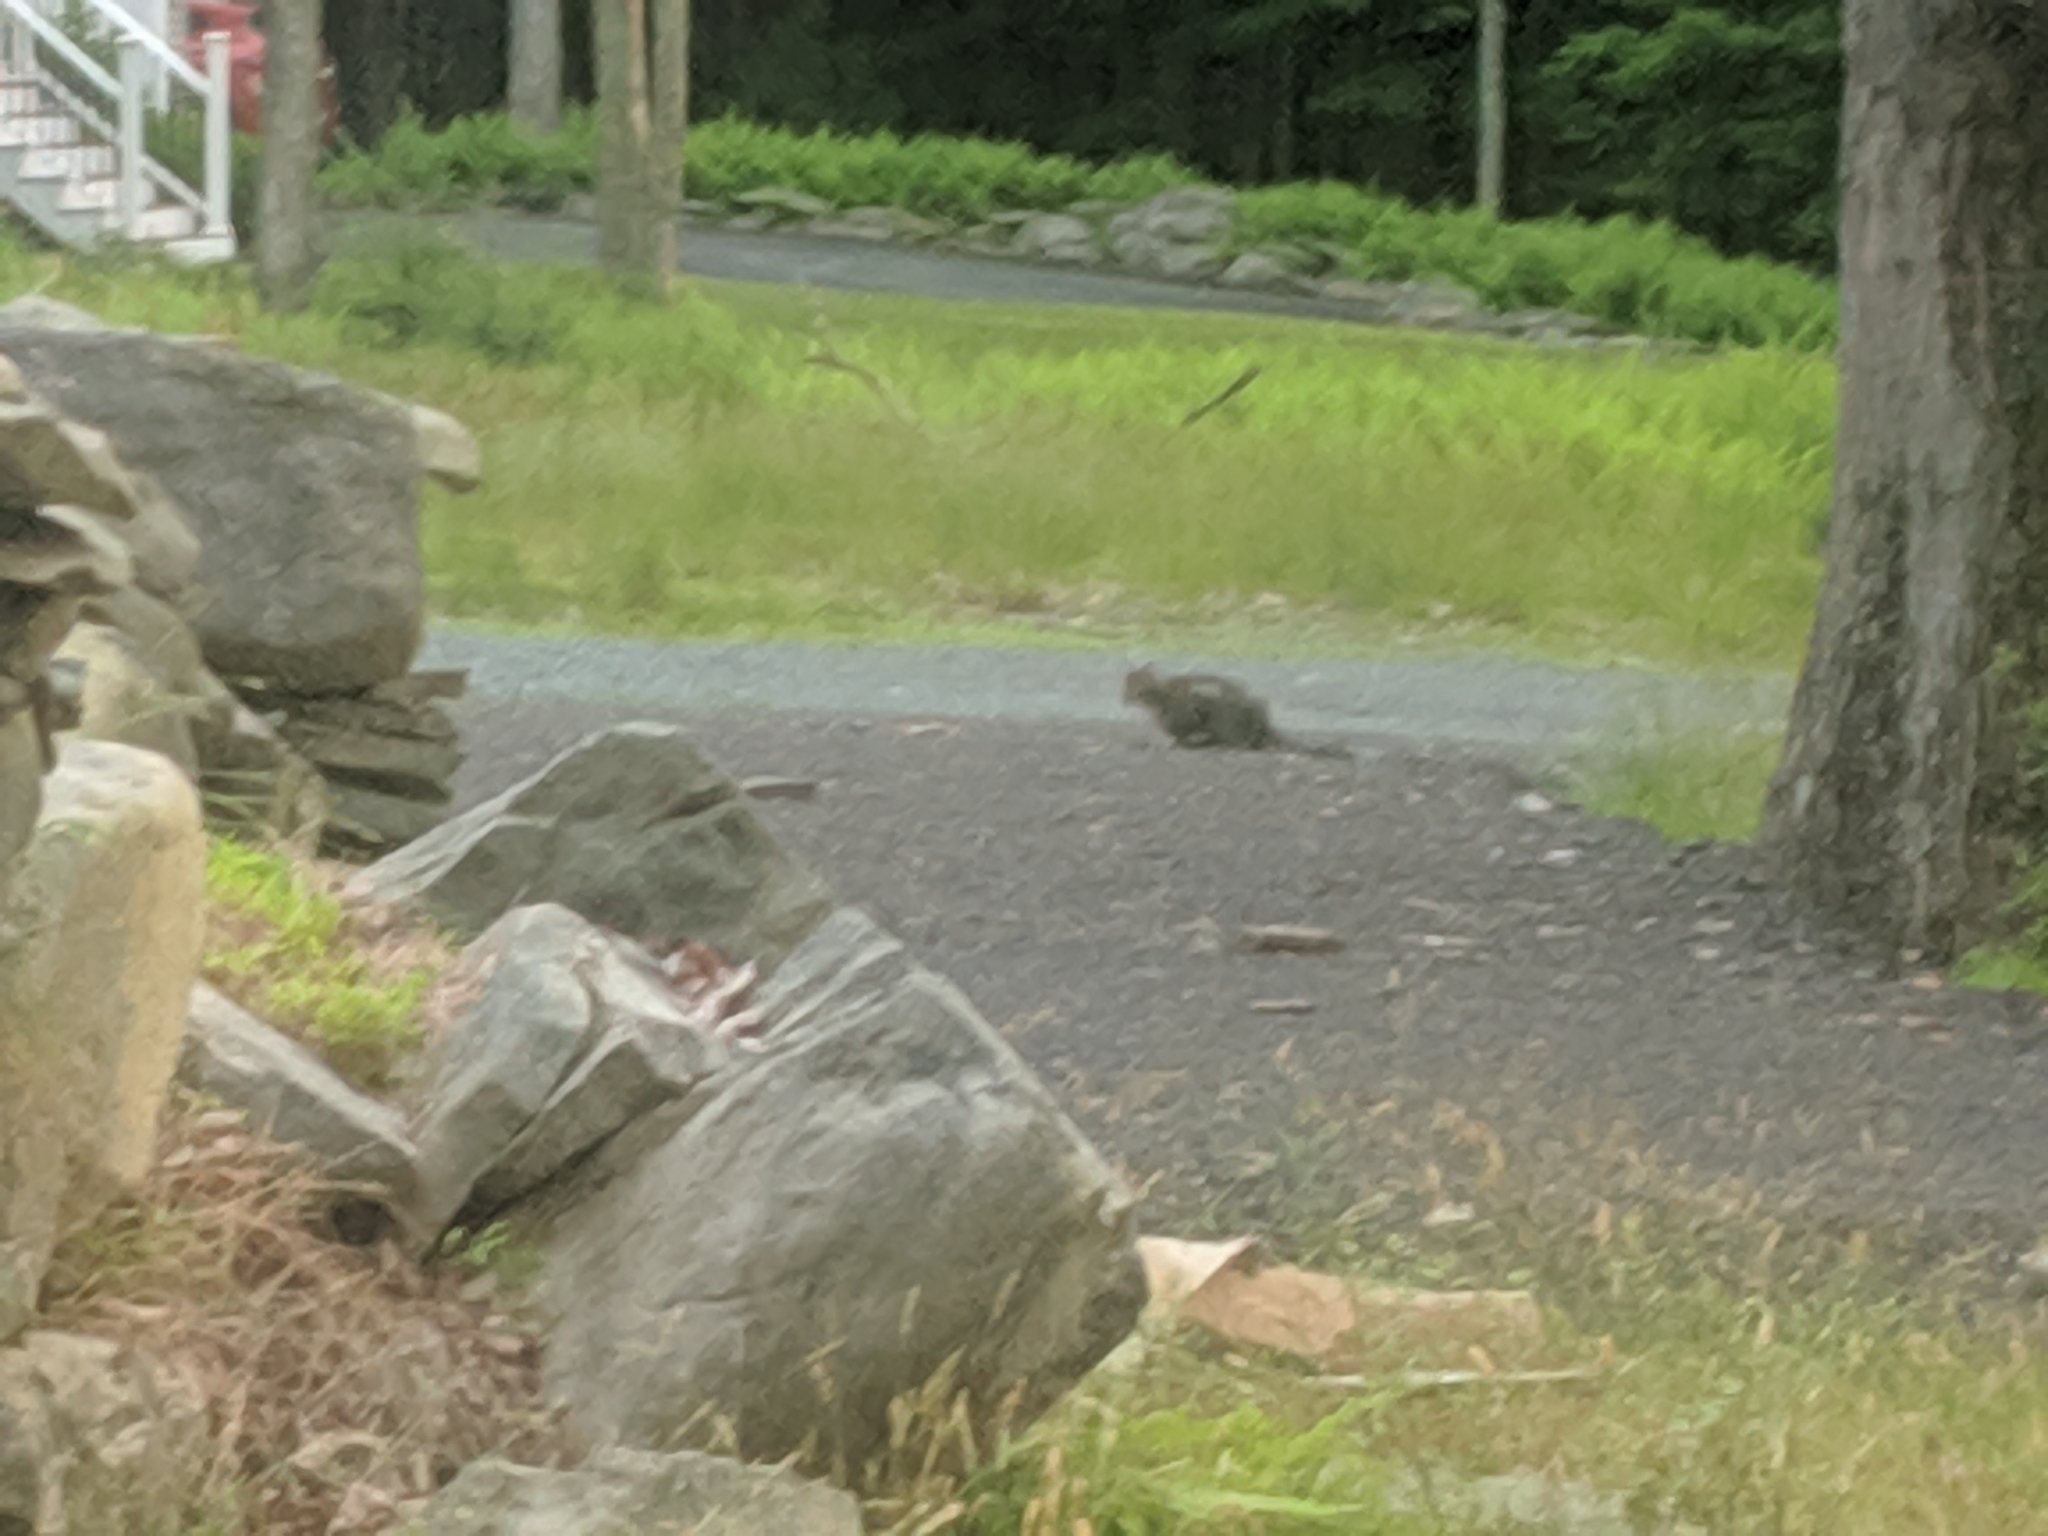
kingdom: Animalia
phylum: Chordata
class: Mammalia
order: Carnivora
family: Felidae
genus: Felis
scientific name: Felis catus
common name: Domestic cat
